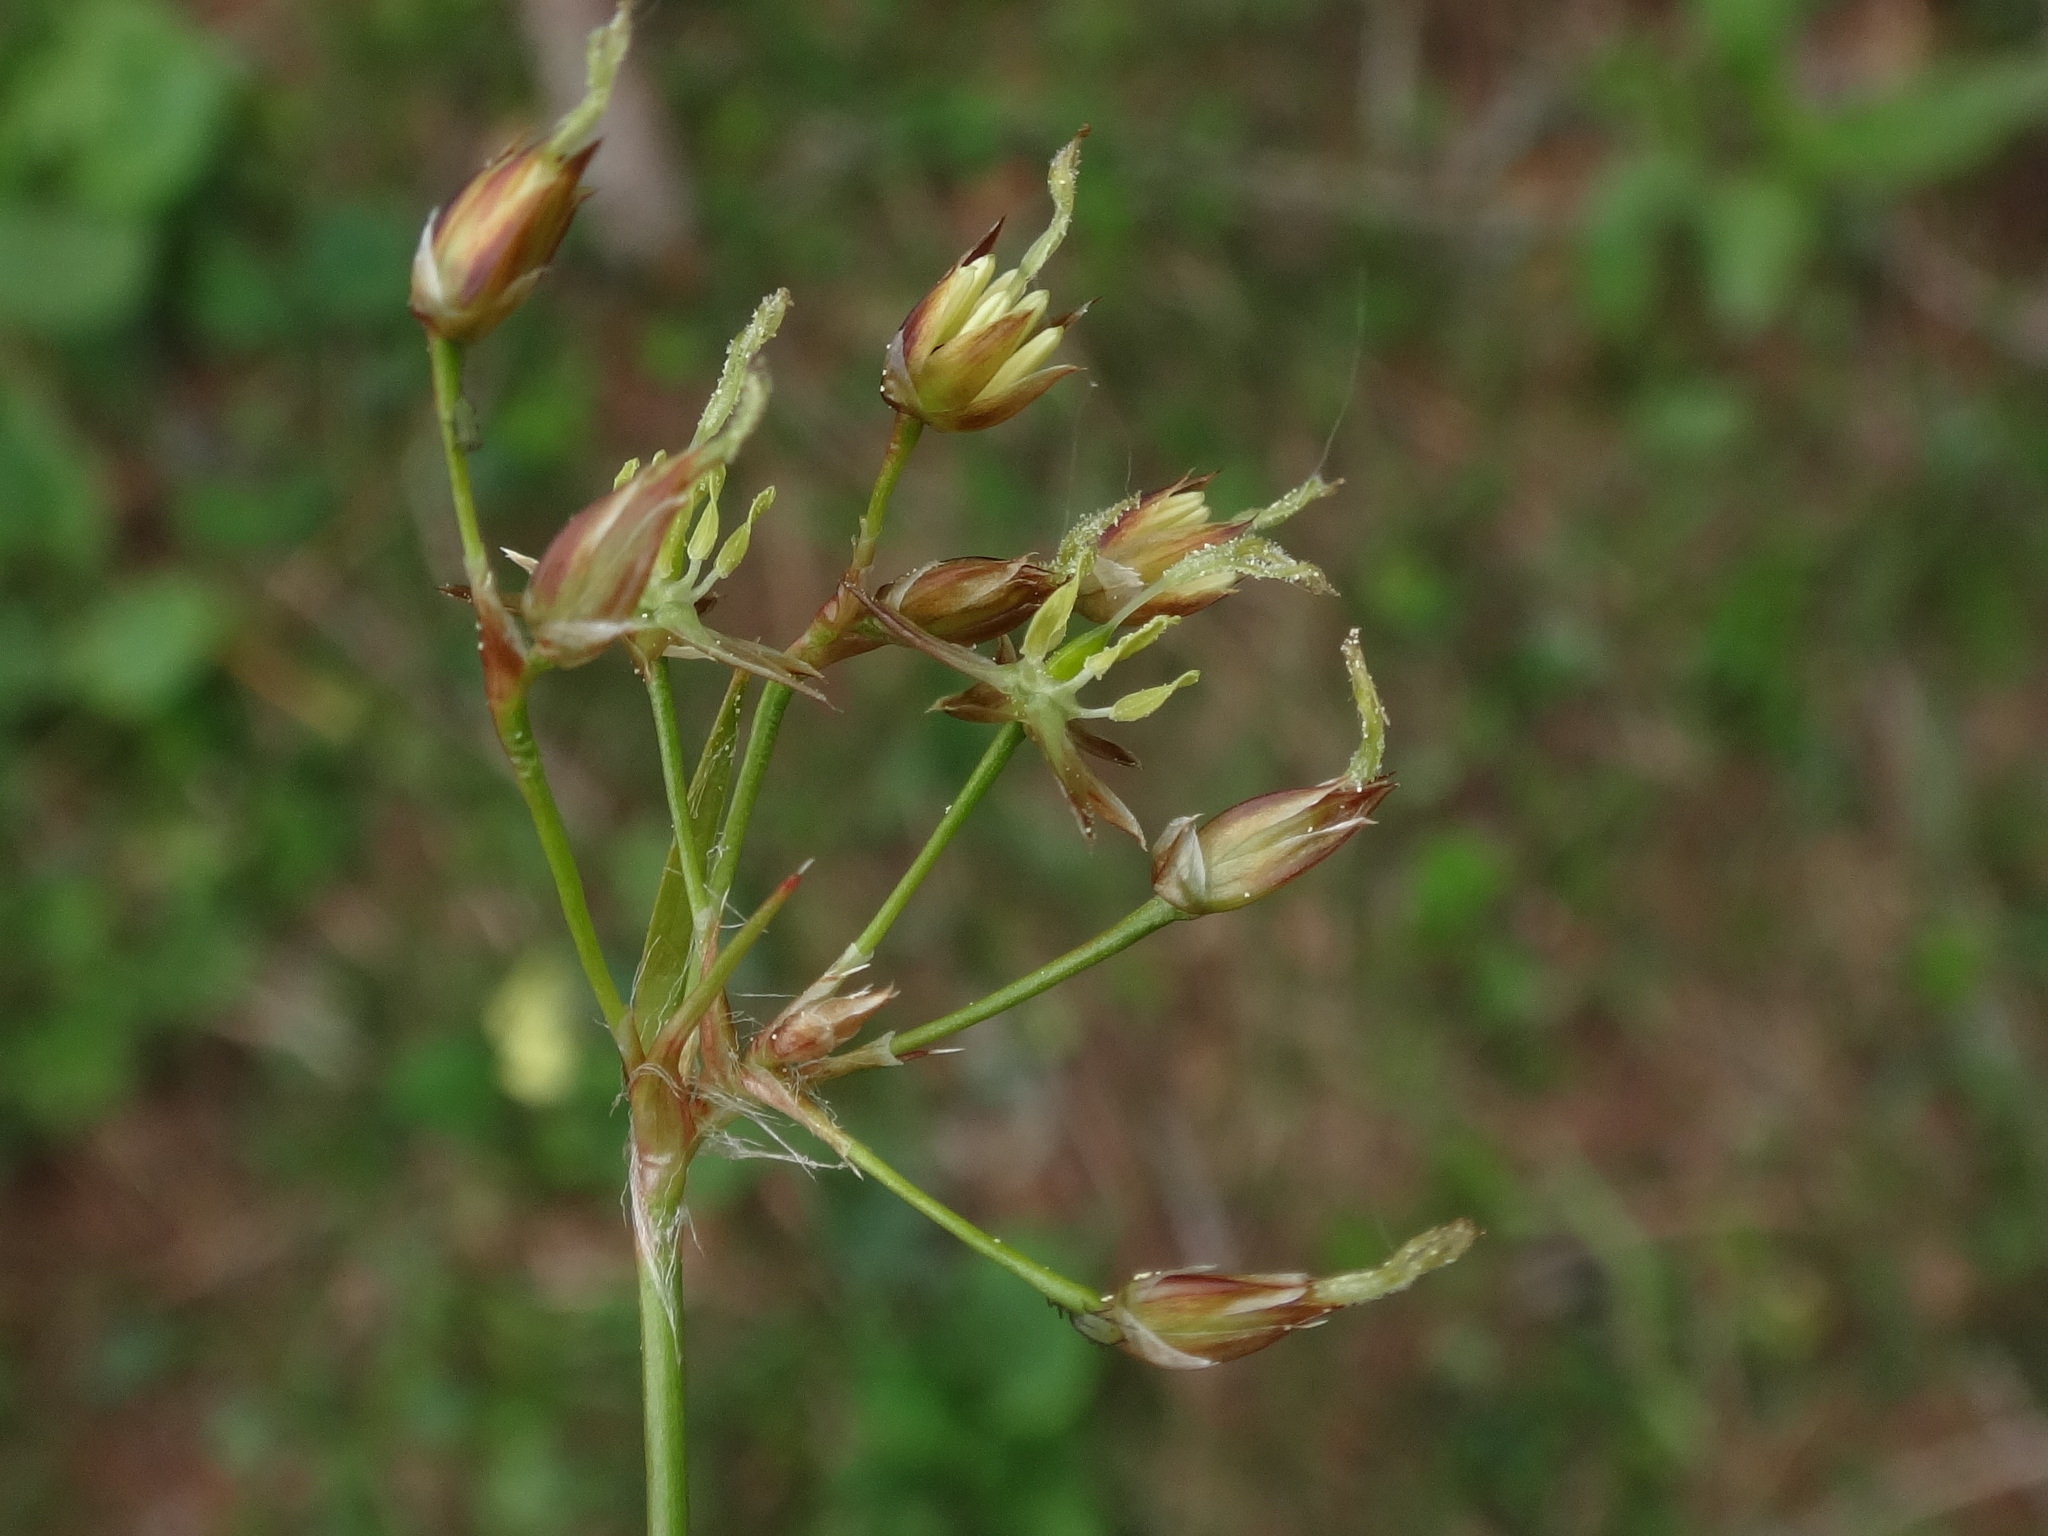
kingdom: Plantae
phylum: Tracheophyta
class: Liliopsida
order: Poales
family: Juncaceae
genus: Luzula
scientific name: Luzula luzulina
